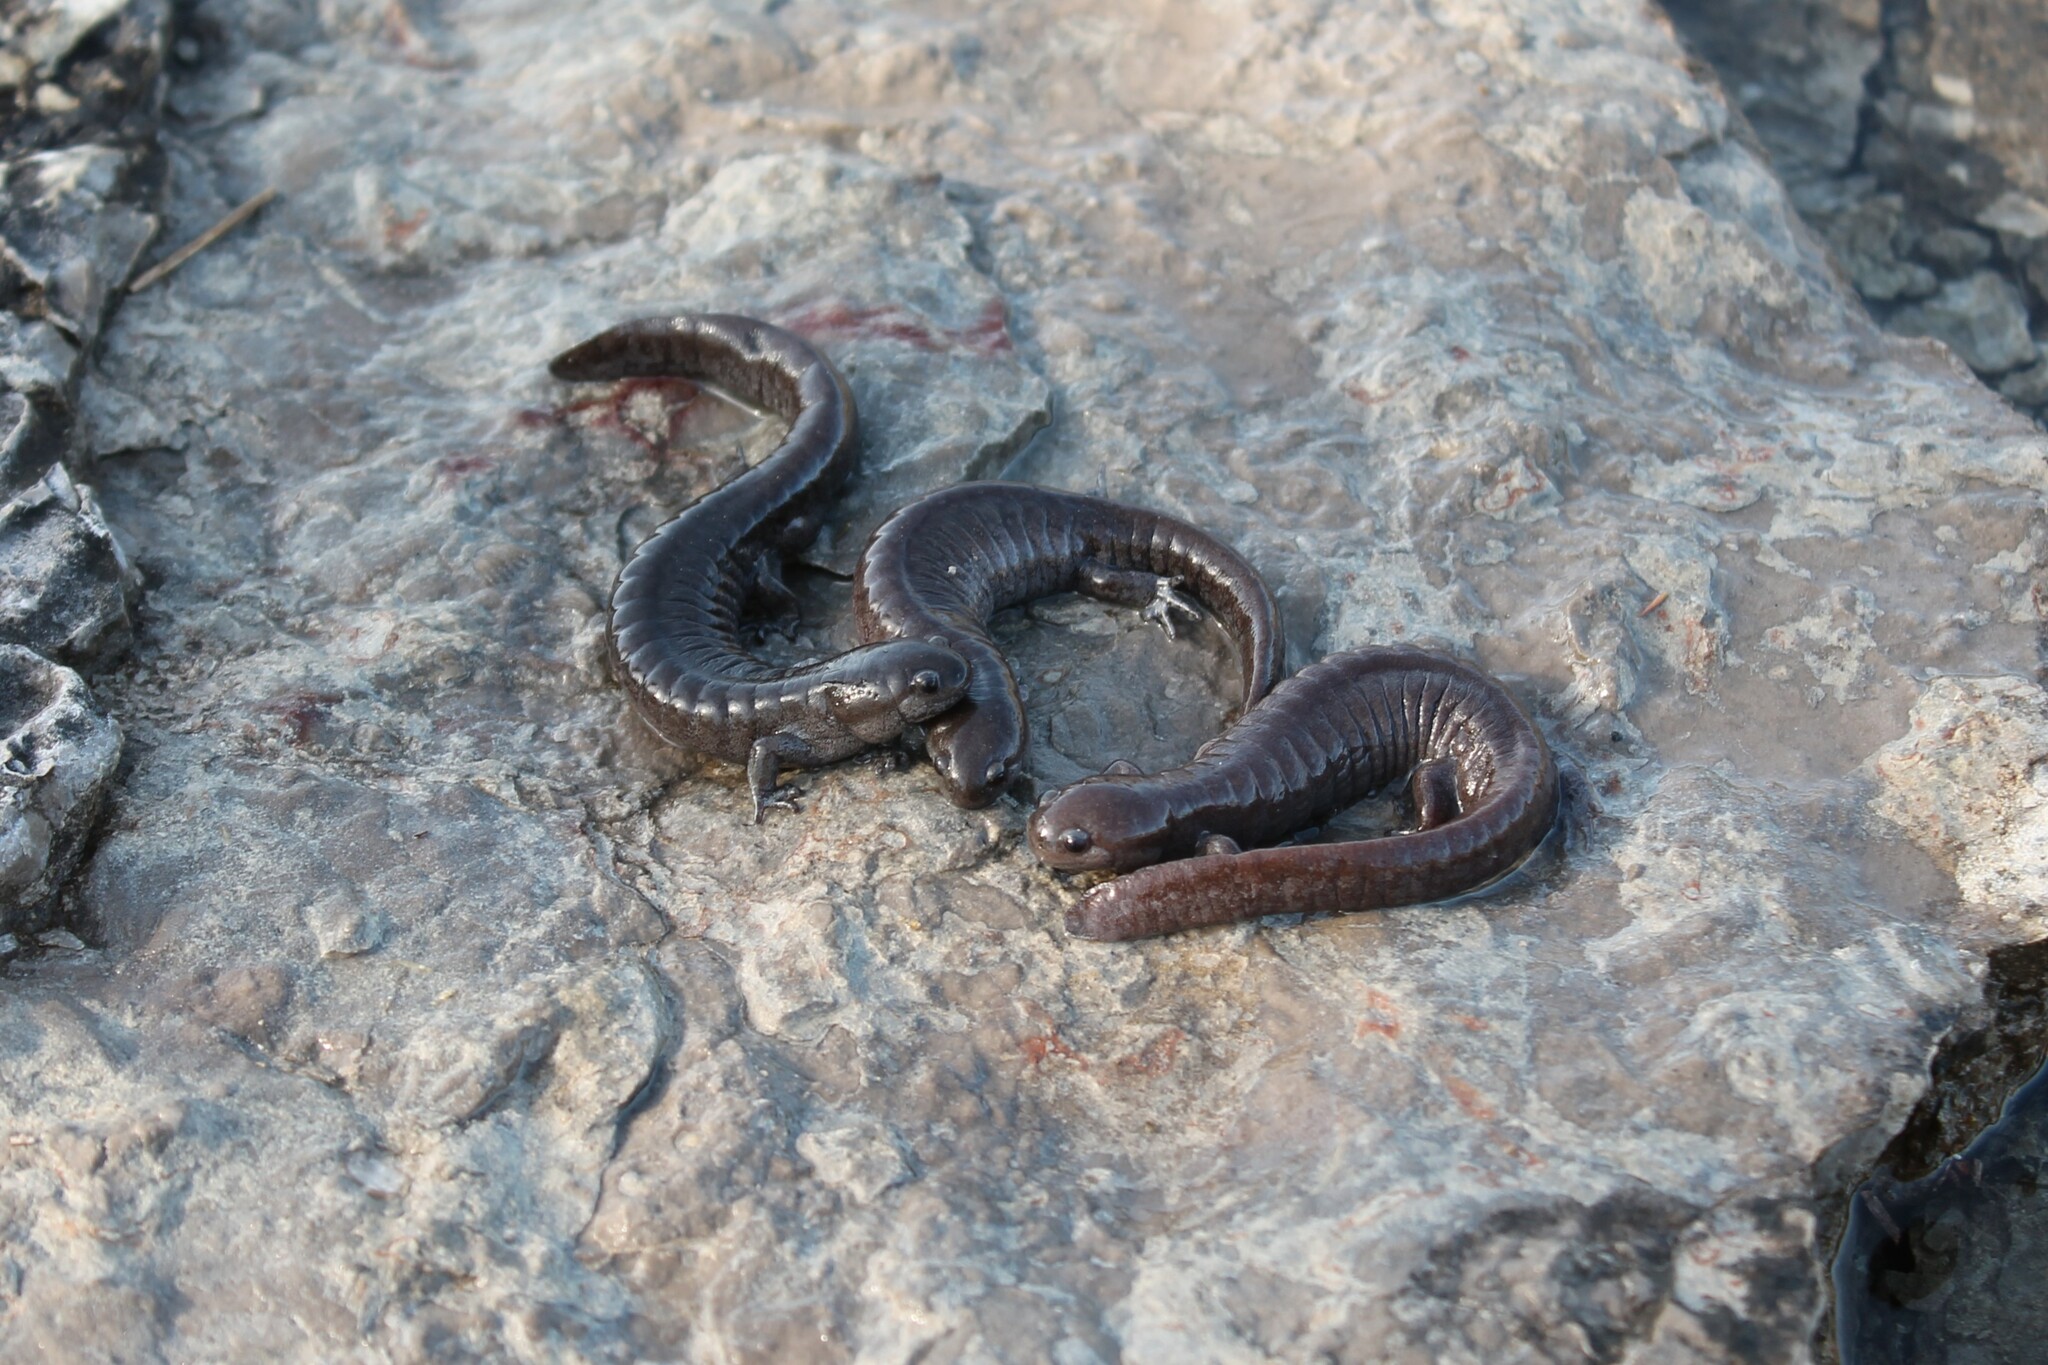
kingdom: Animalia
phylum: Chordata
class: Amphibia
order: Caudata
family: Ambystomatidae
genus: Ambystoma
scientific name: Ambystoma barbouri
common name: Streamside salamander
